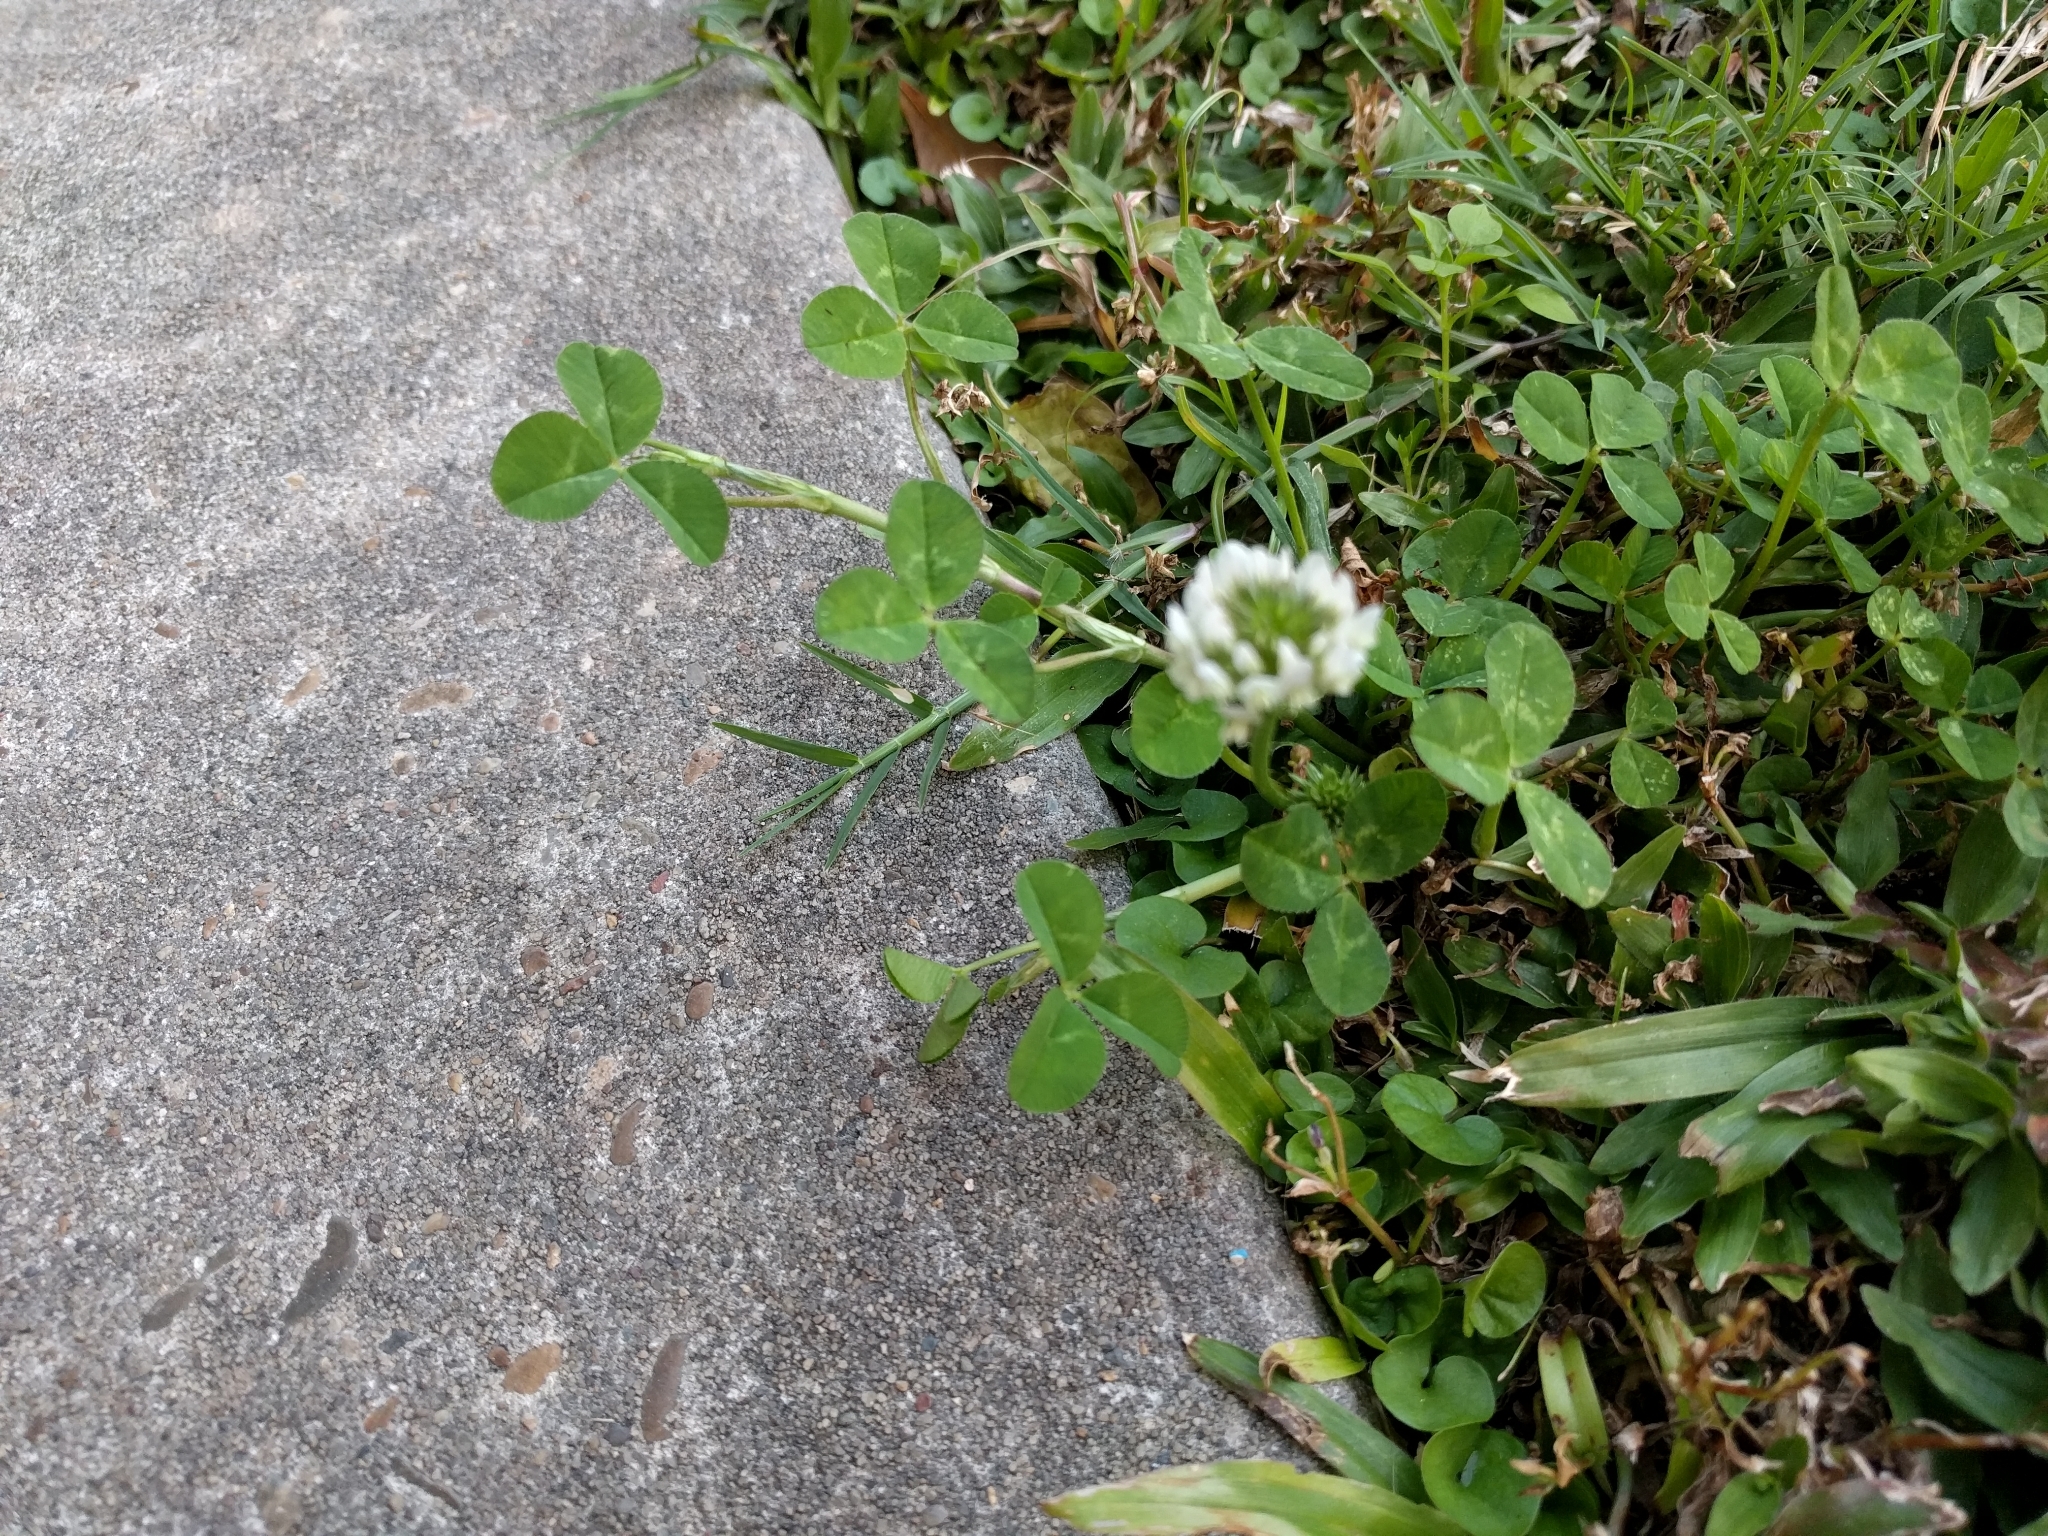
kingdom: Plantae
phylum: Tracheophyta
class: Magnoliopsida
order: Fabales
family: Fabaceae
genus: Trifolium
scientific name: Trifolium repens
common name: White clover
